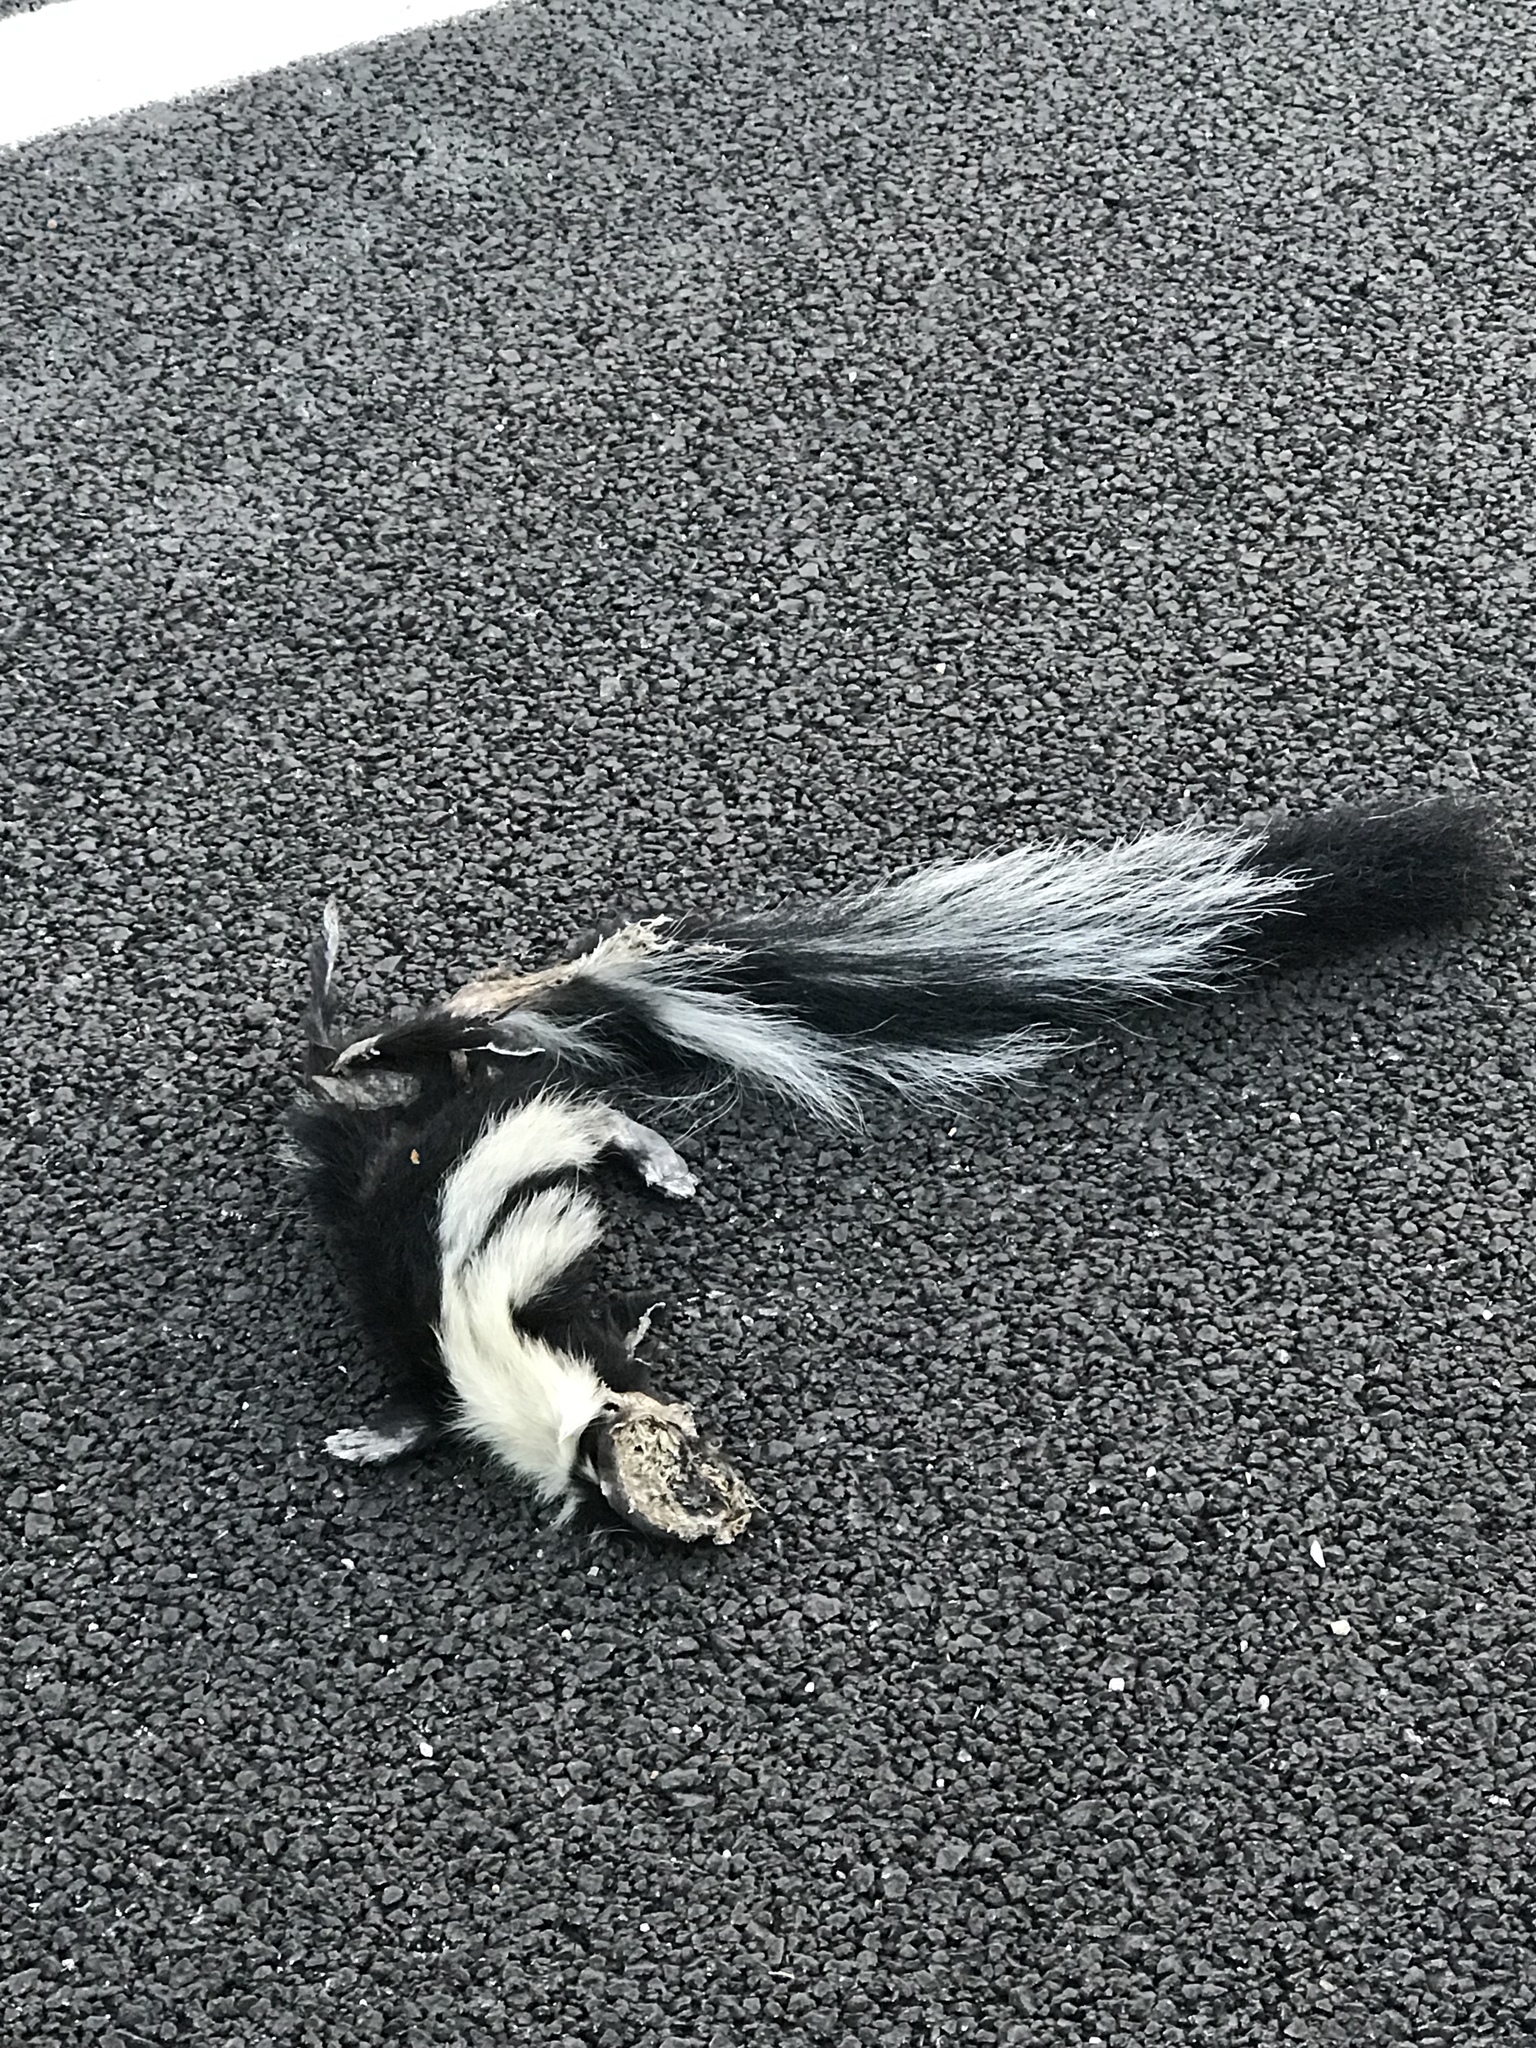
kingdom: Animalia
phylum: Chordata
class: Mammalia
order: Carnivora
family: Mephitidae
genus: Mephitis
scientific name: Mephitis mephitis
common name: Striped skunk
